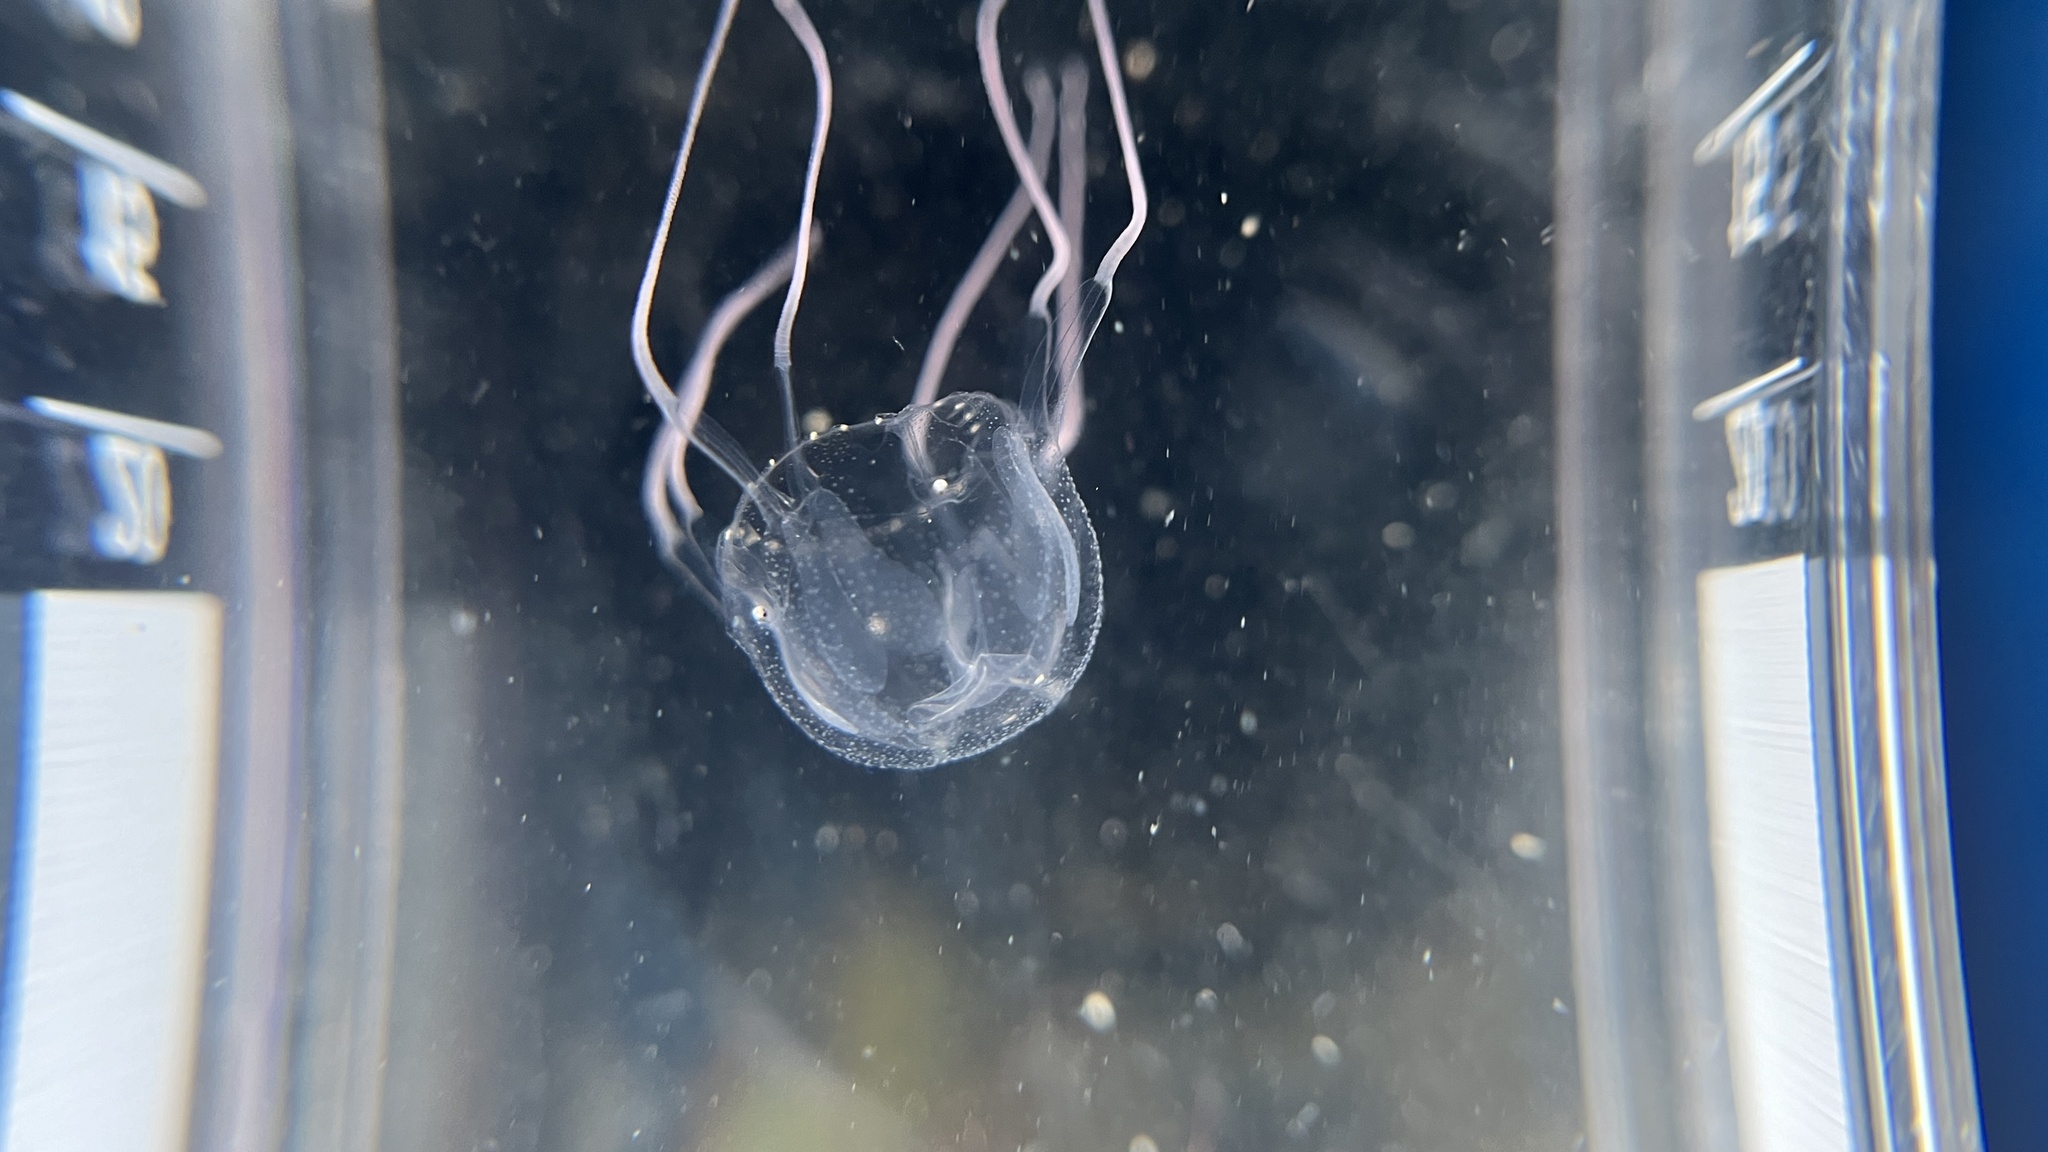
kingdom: Animalia
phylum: Cnidaria
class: Cubozoa
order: Carybdeida
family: Tripedaliidae
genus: Tripedalia
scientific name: Tripedalia binata
